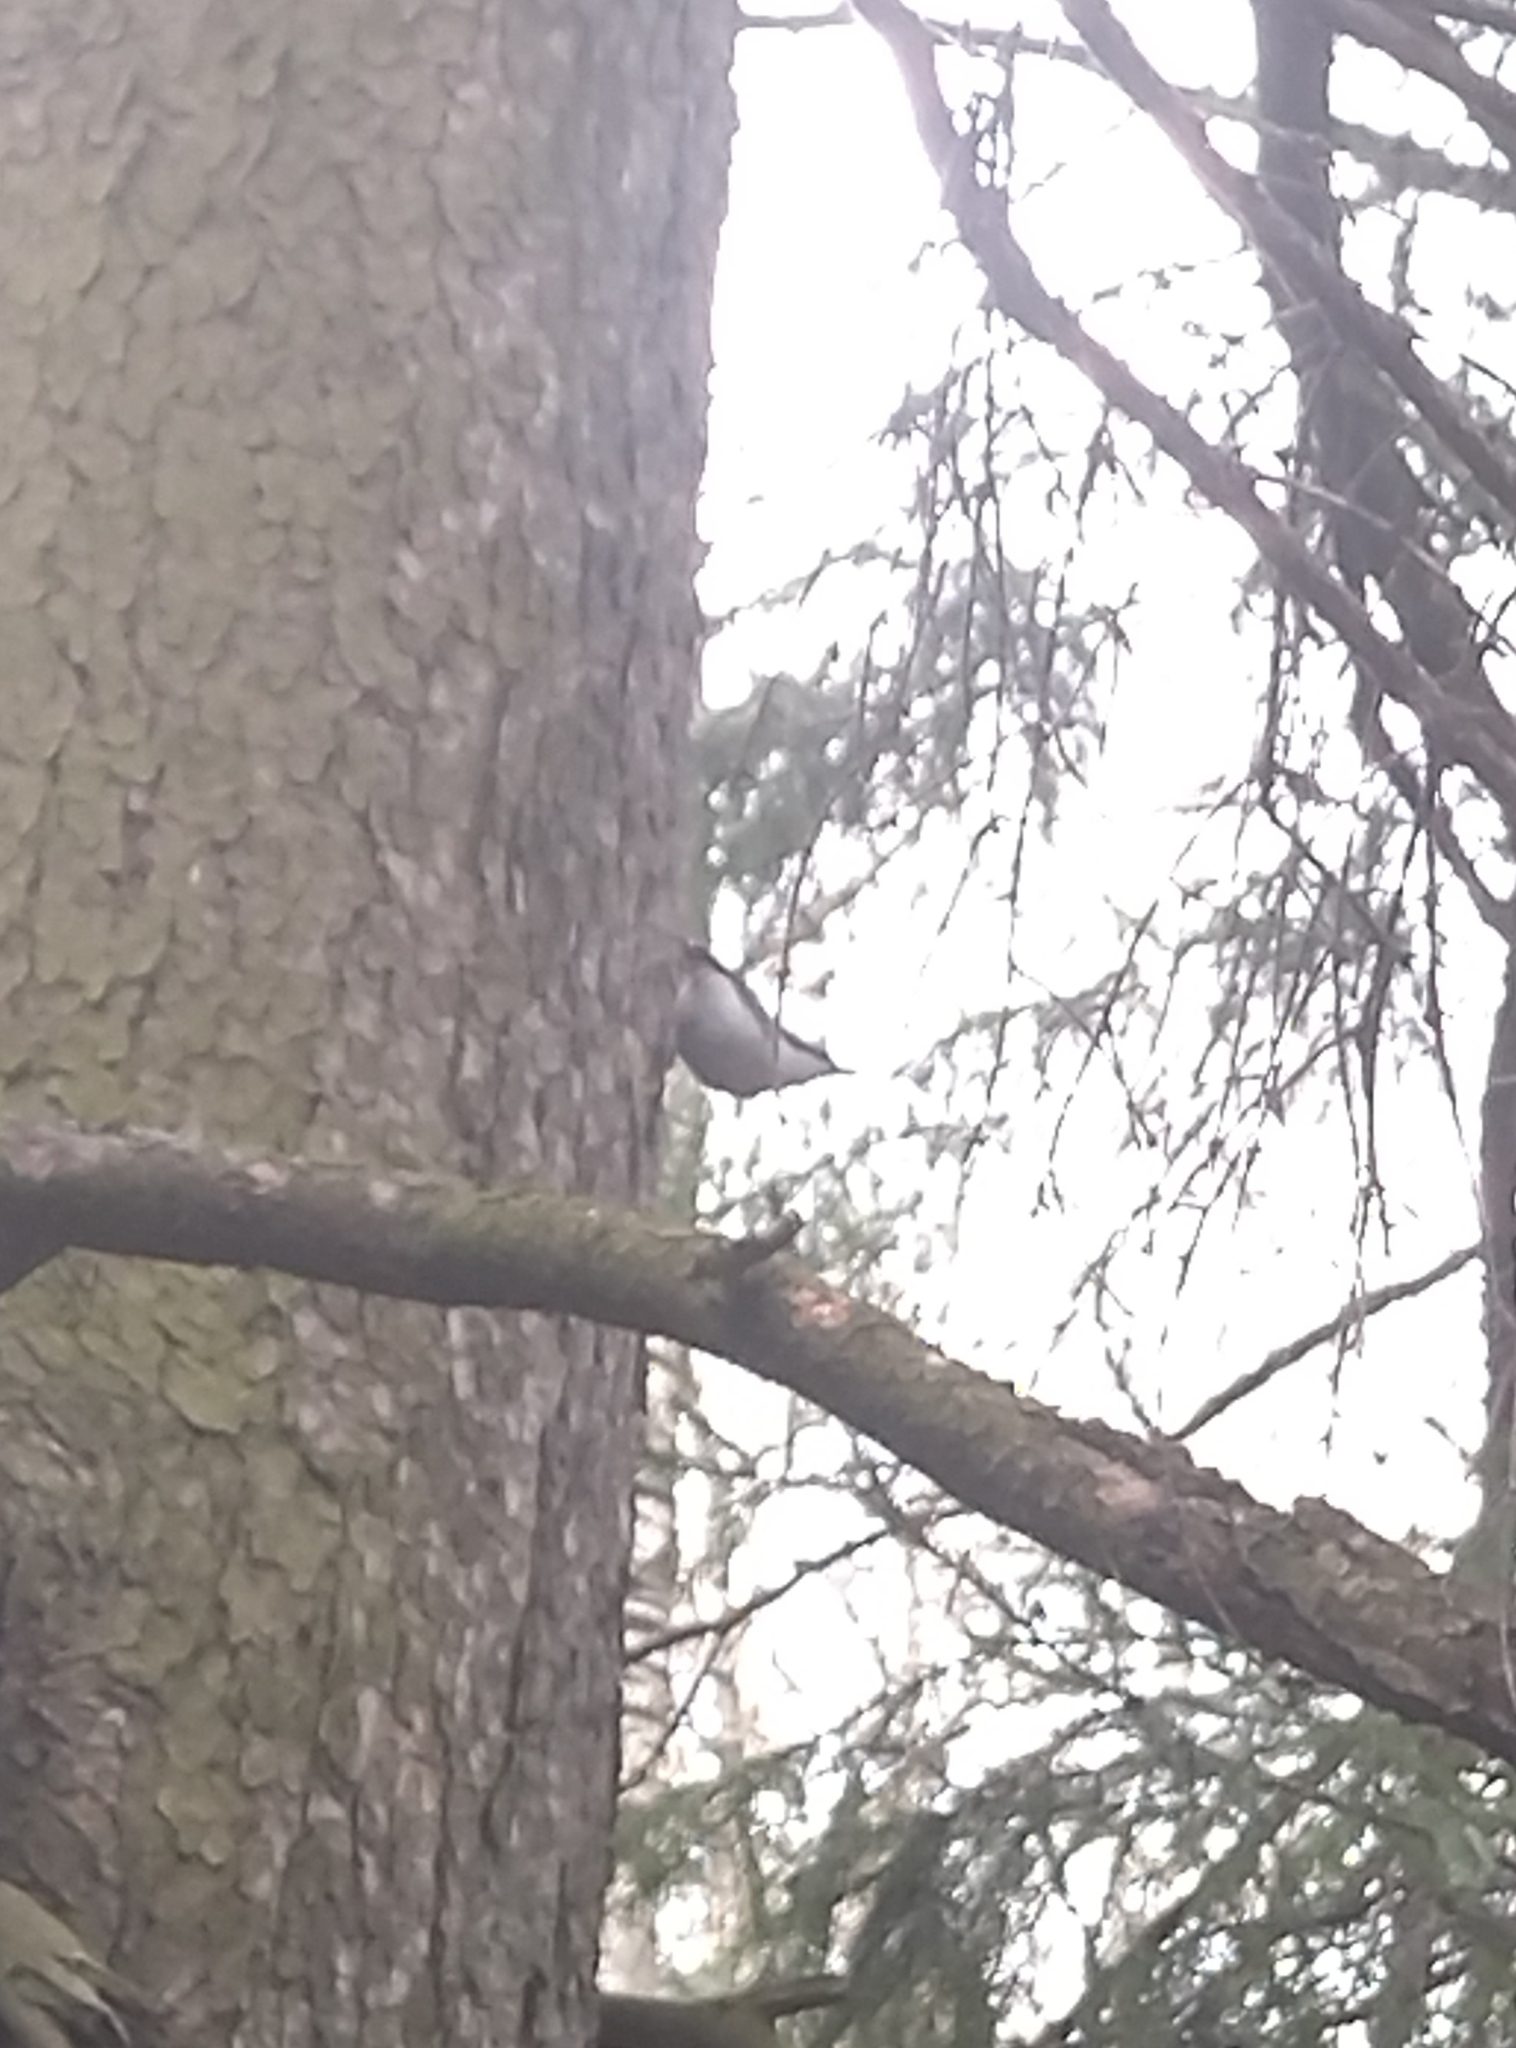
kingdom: Animalia
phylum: Chordata
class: Aves
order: Passeriformes
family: Sittidae
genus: Sitta
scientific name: Sitta europaea
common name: Eurasian nuthatch
